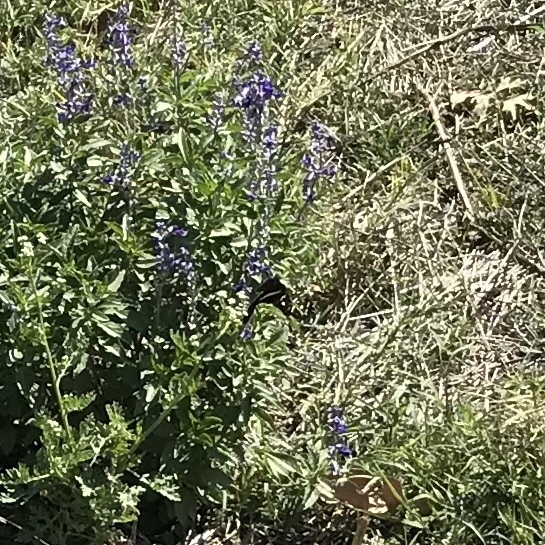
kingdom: Animalia
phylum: Arthropoda
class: Insecta
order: Lepidoptera
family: Hesperiidae
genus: Chioides
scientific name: Chioides catillus
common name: Silverbanded skipper
